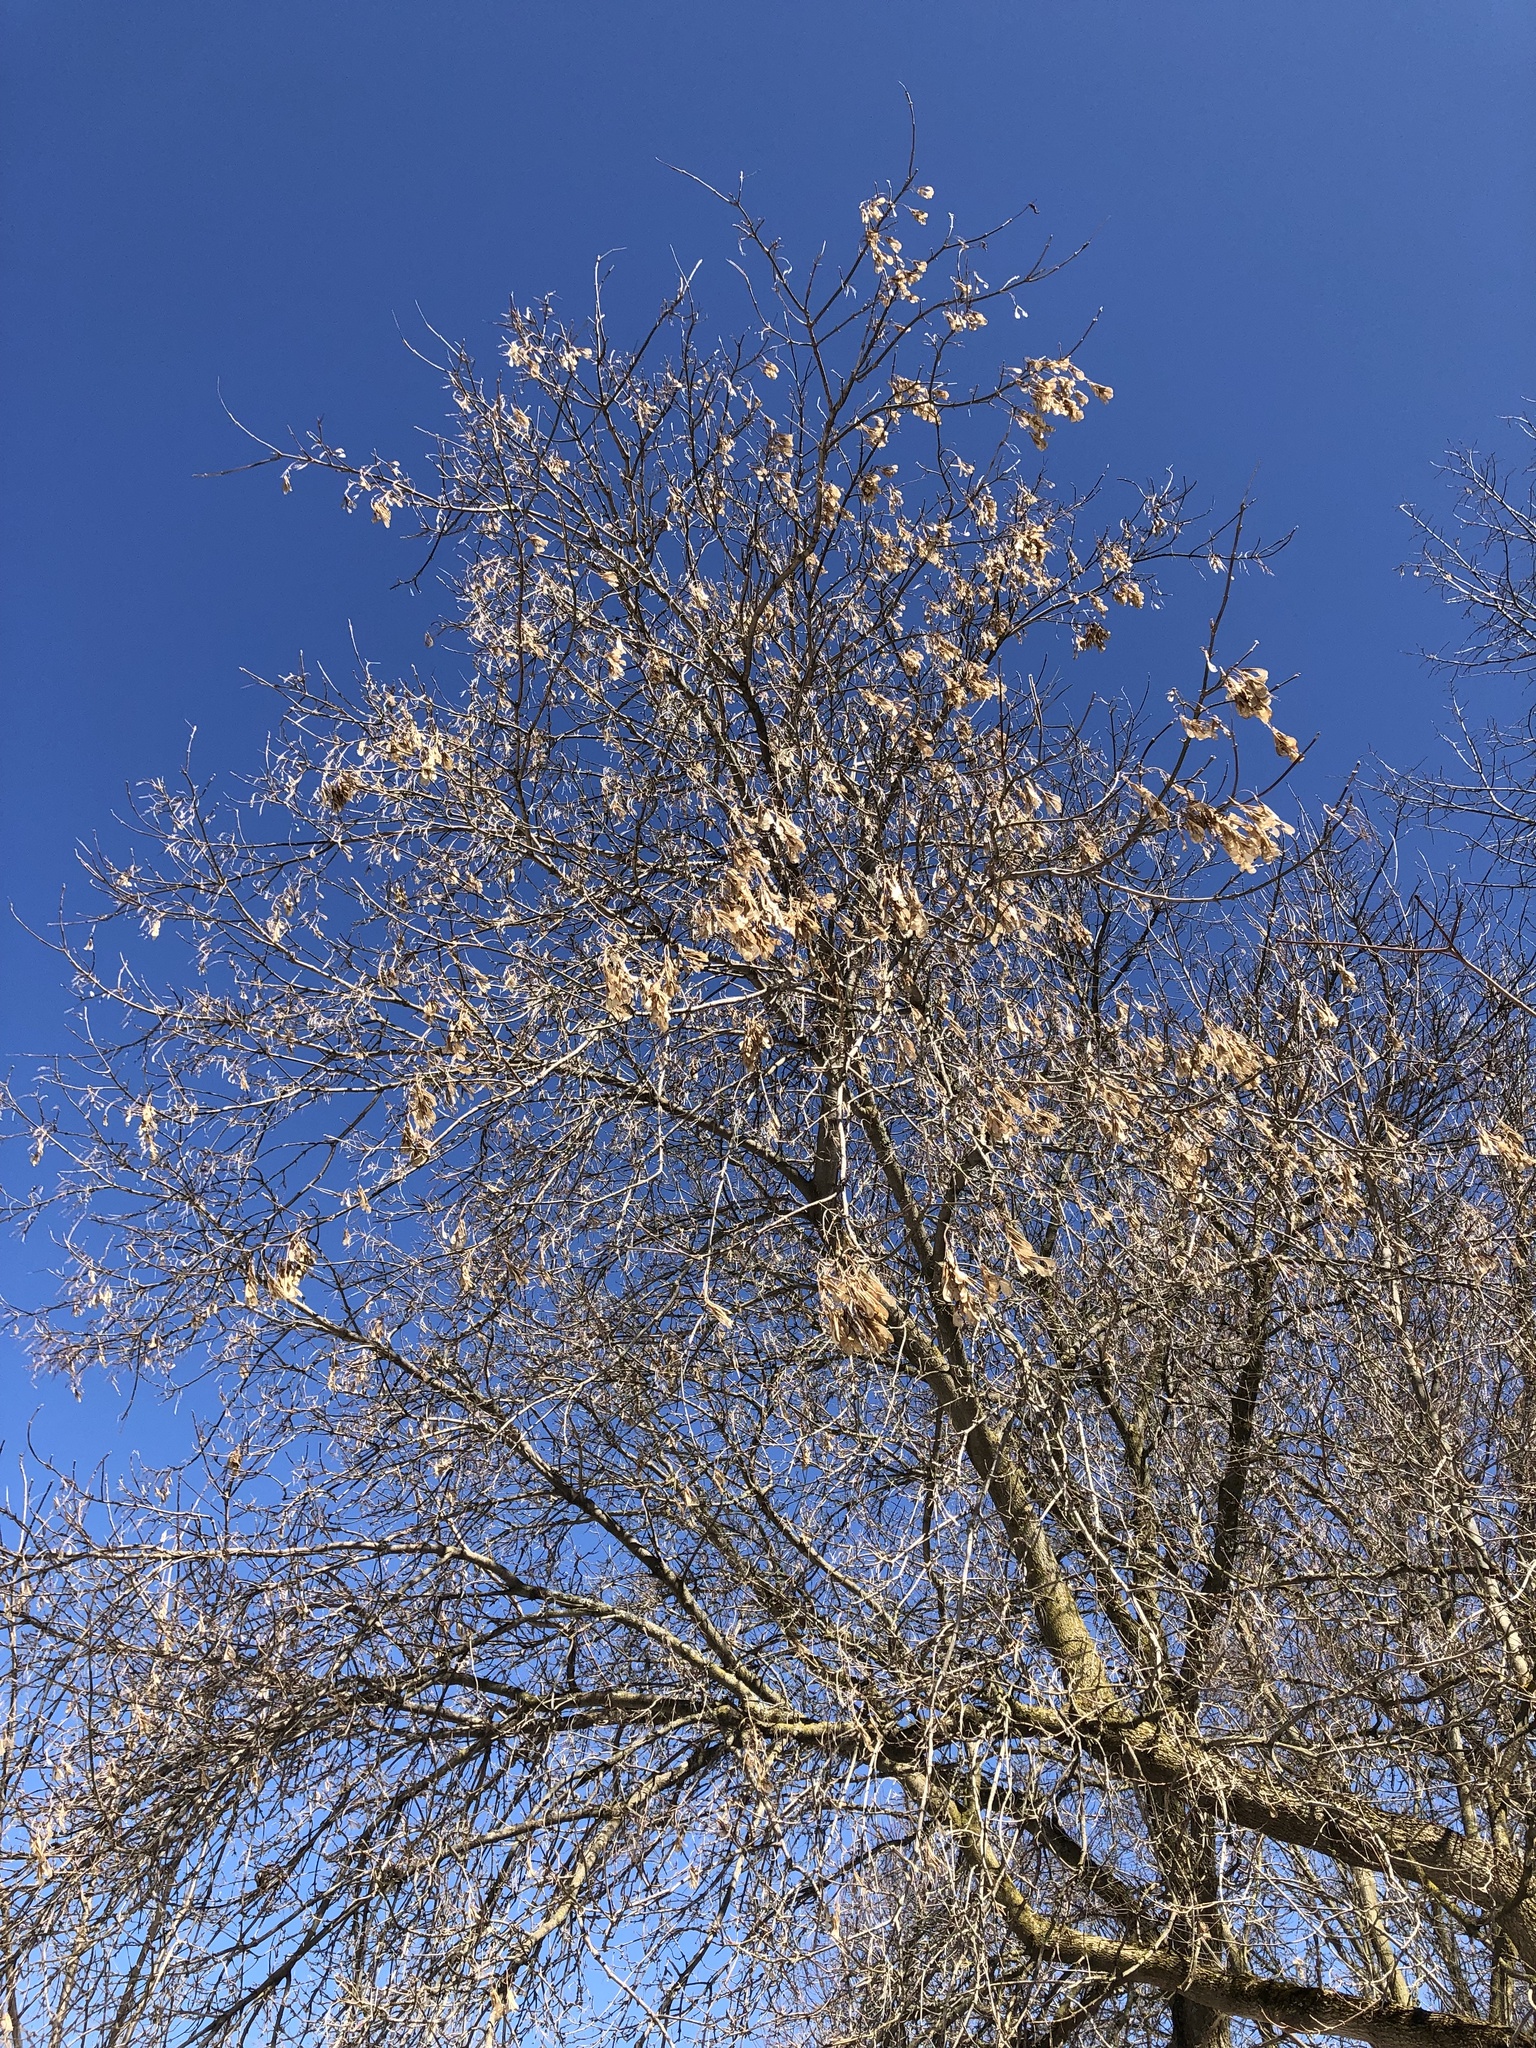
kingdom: Plantae
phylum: Tracheophyta
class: Magnoliopsida
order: Sapindales
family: Sapindaceae
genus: Acer
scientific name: Acer negundo
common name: Ashleaf maple
